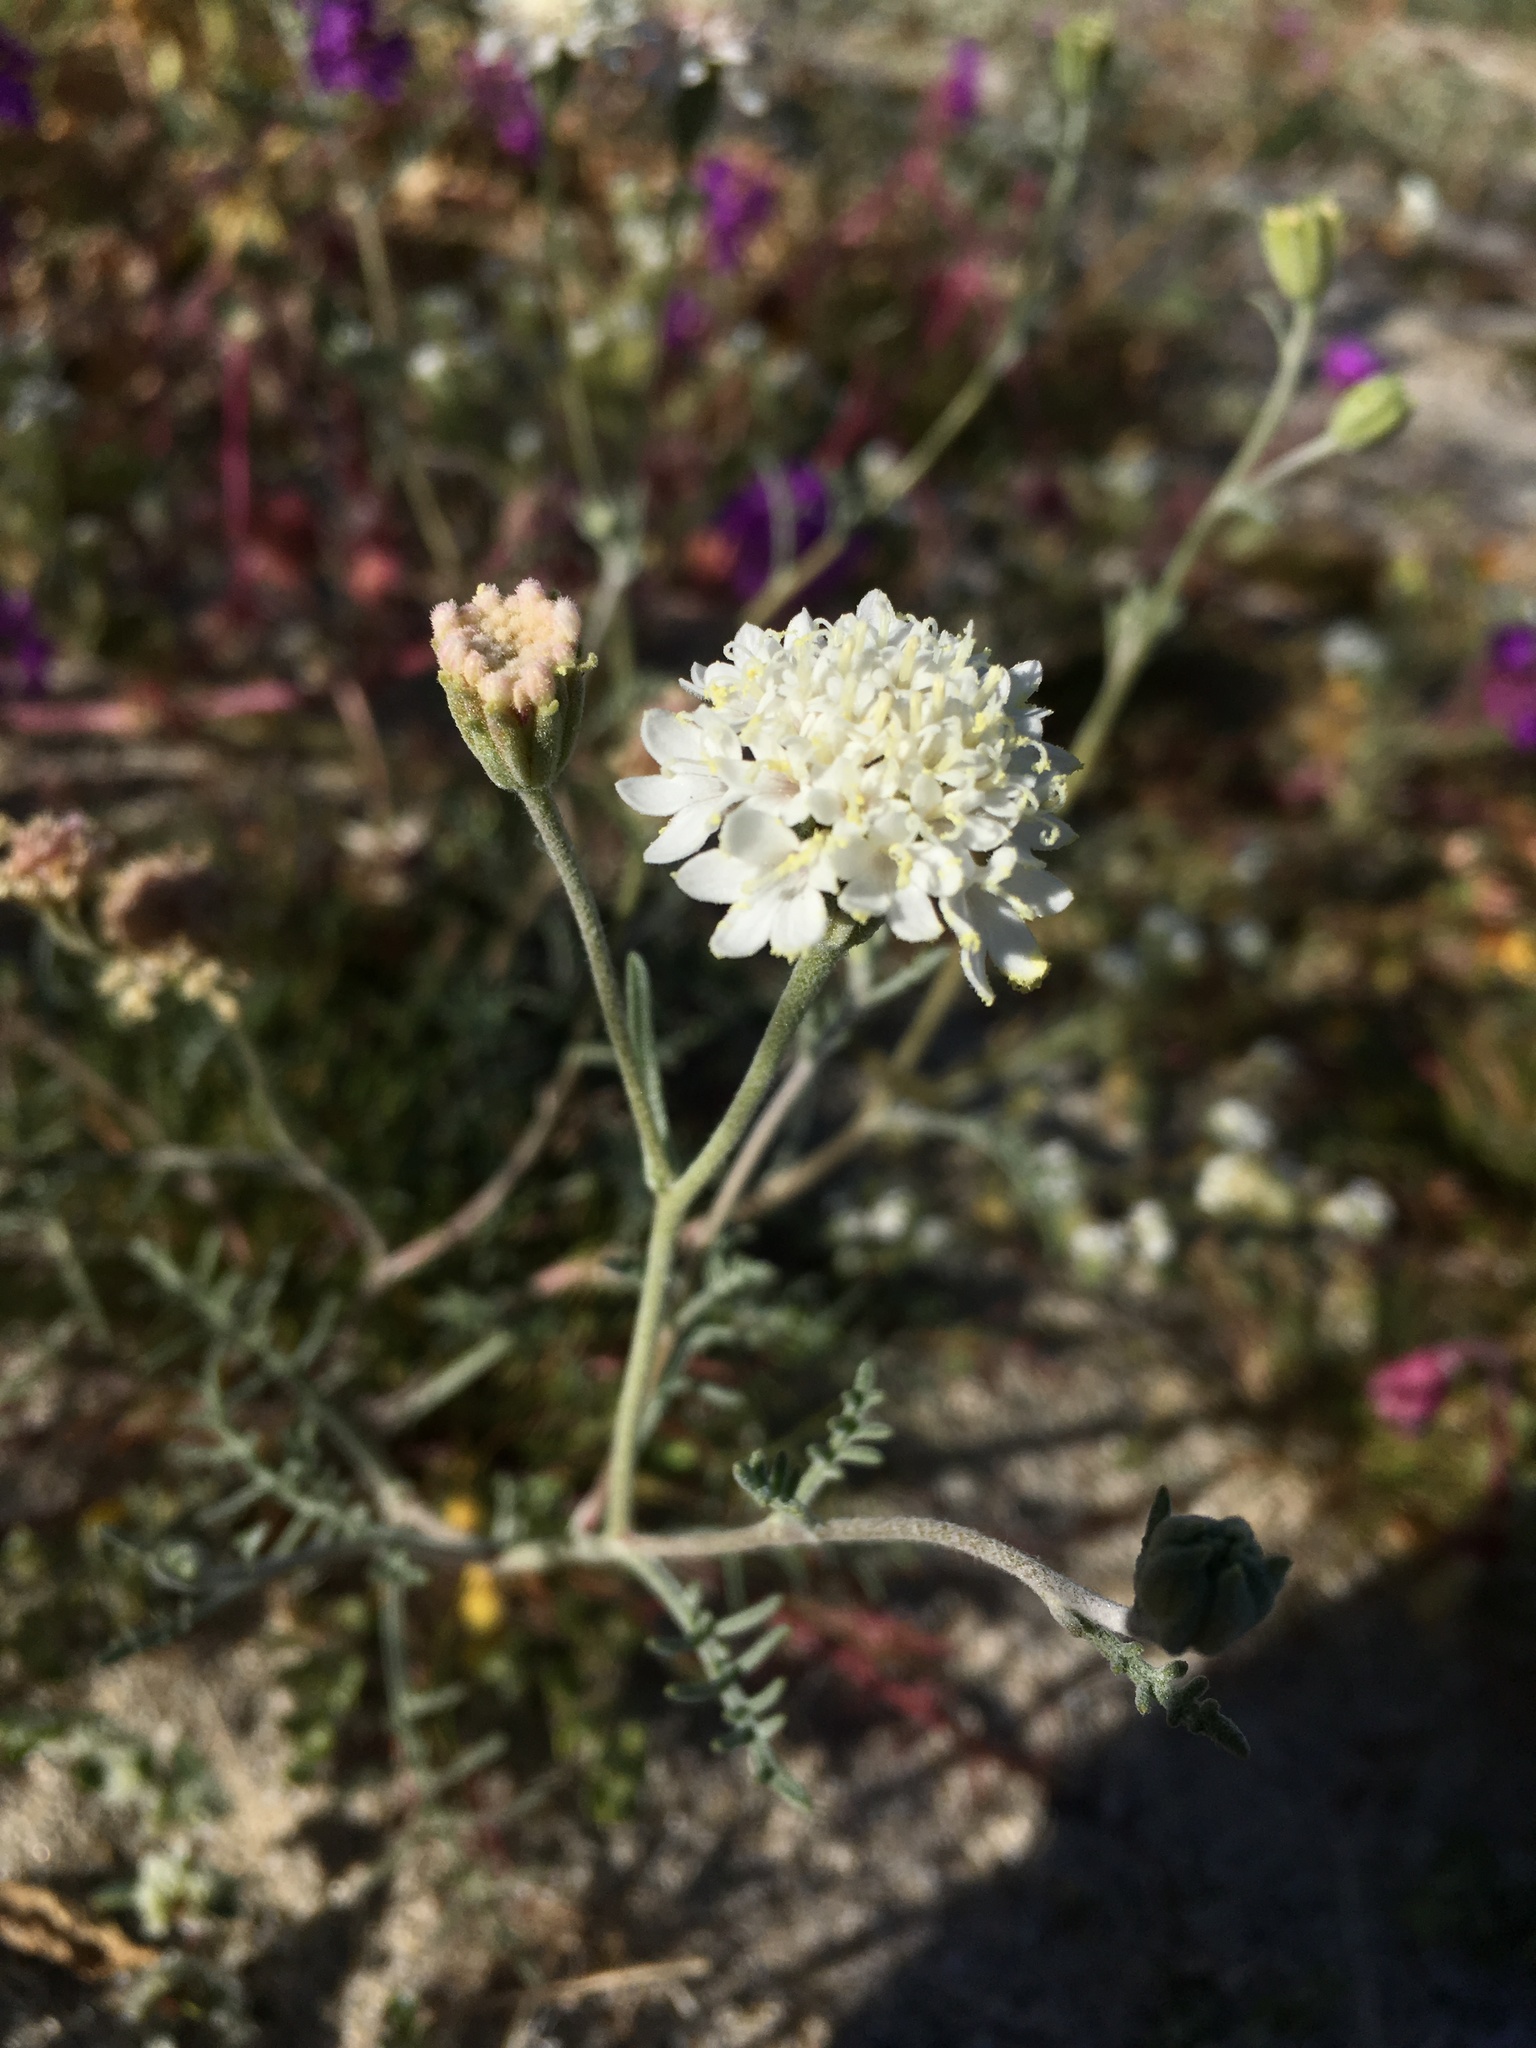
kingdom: Plantae
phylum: Tracheophyta
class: Magnoliopsida
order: Asterales
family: Asteraceae
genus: Chaenactis
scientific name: Chaenactis stevioides
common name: Desert pincushion
